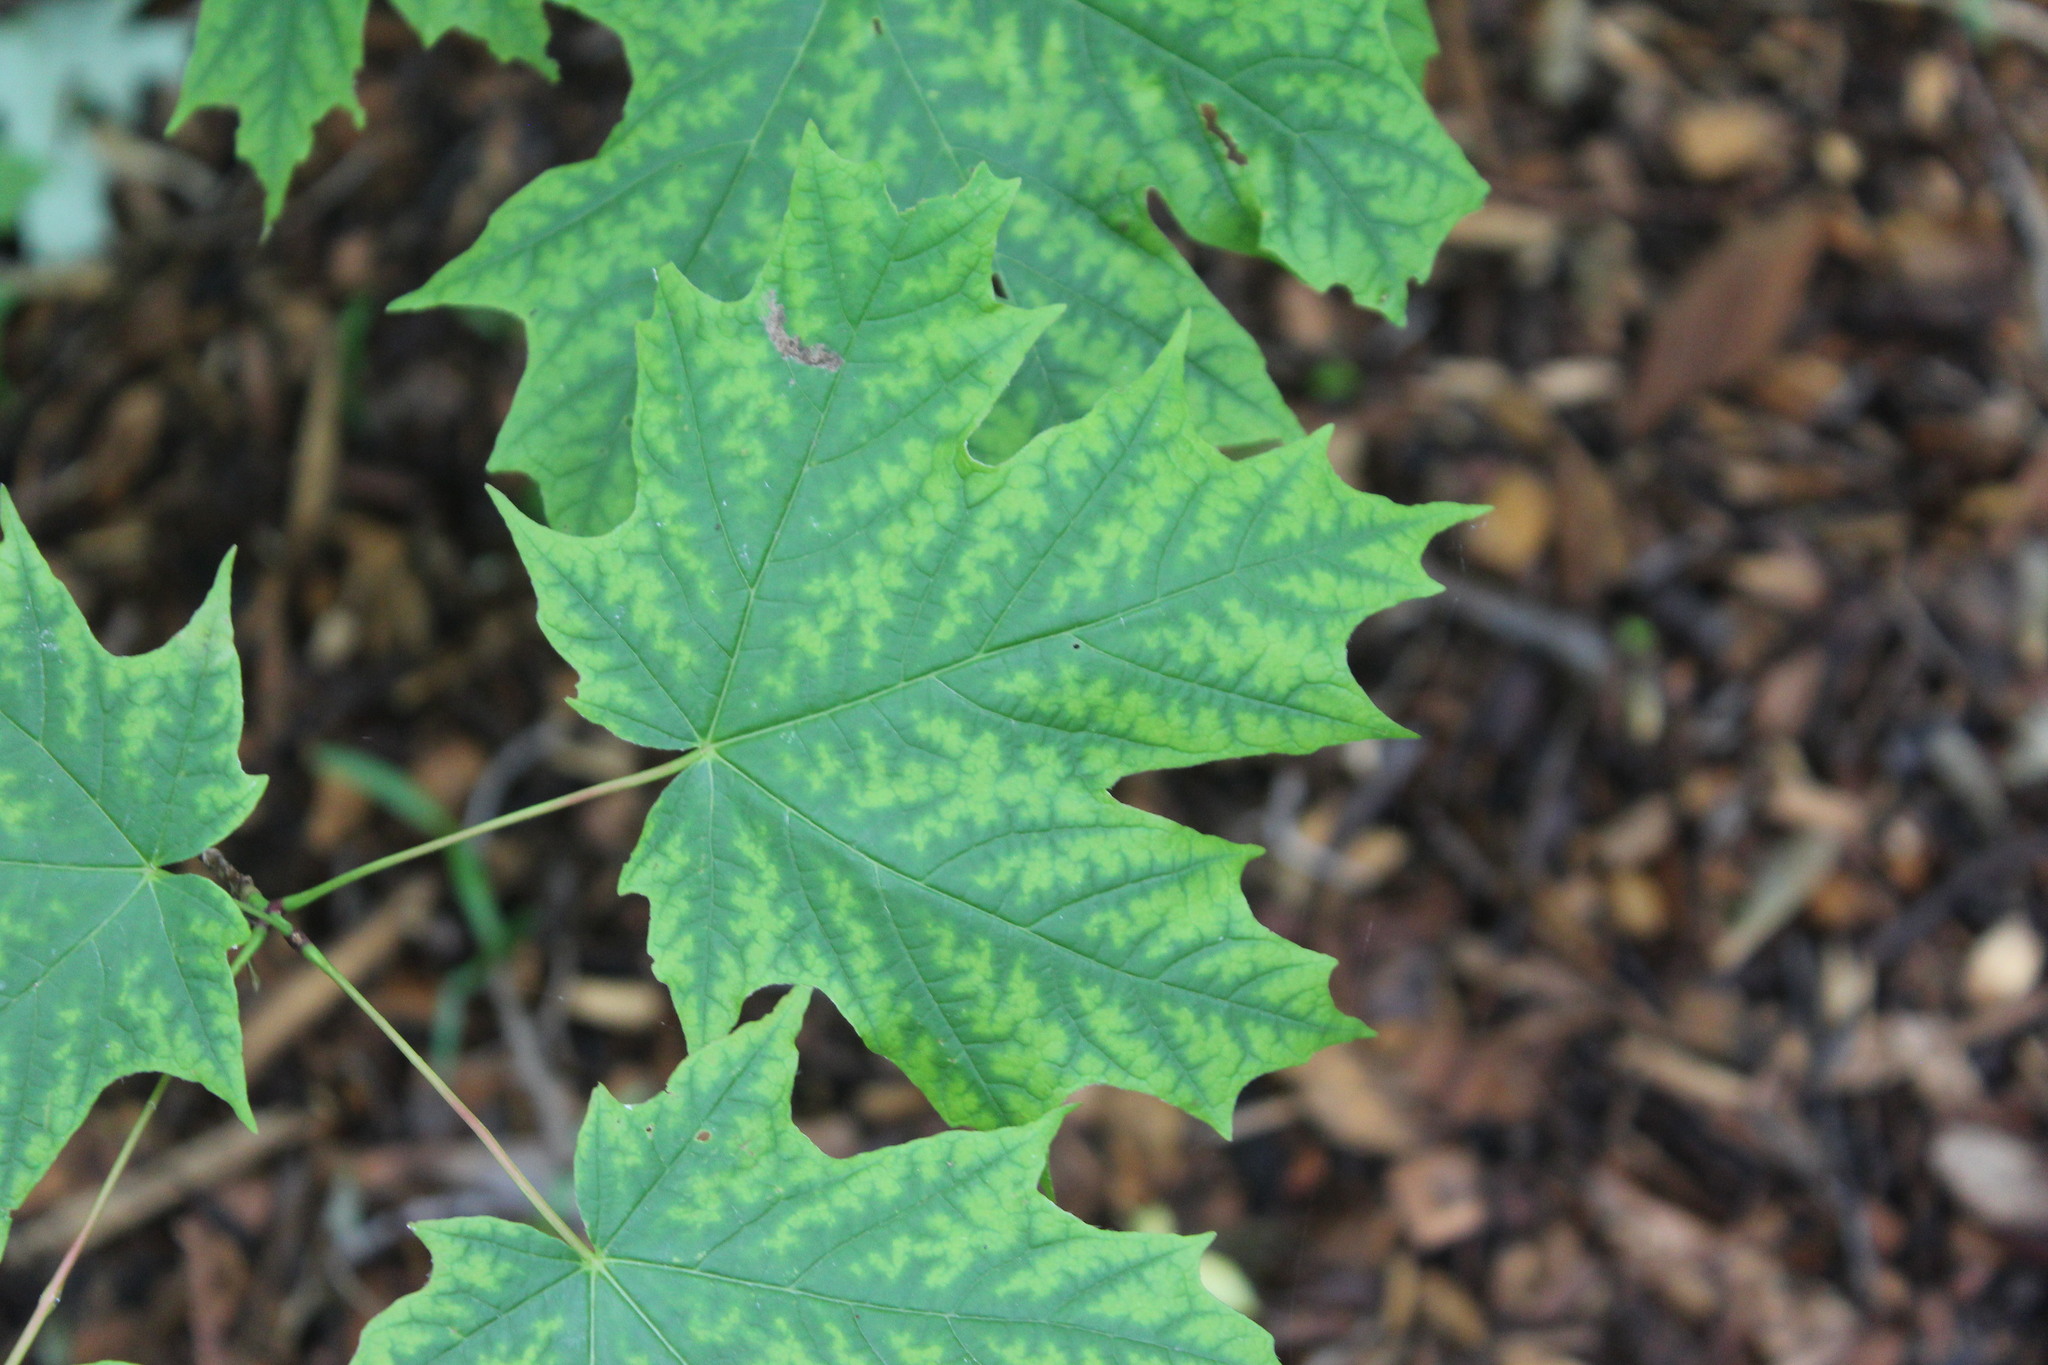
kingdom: Plantae
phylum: Tracheophyta
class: Magnoliopsida
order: Sapindales
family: Sapindaceae
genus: Acer
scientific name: Acer saccharum
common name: Sugar maple
